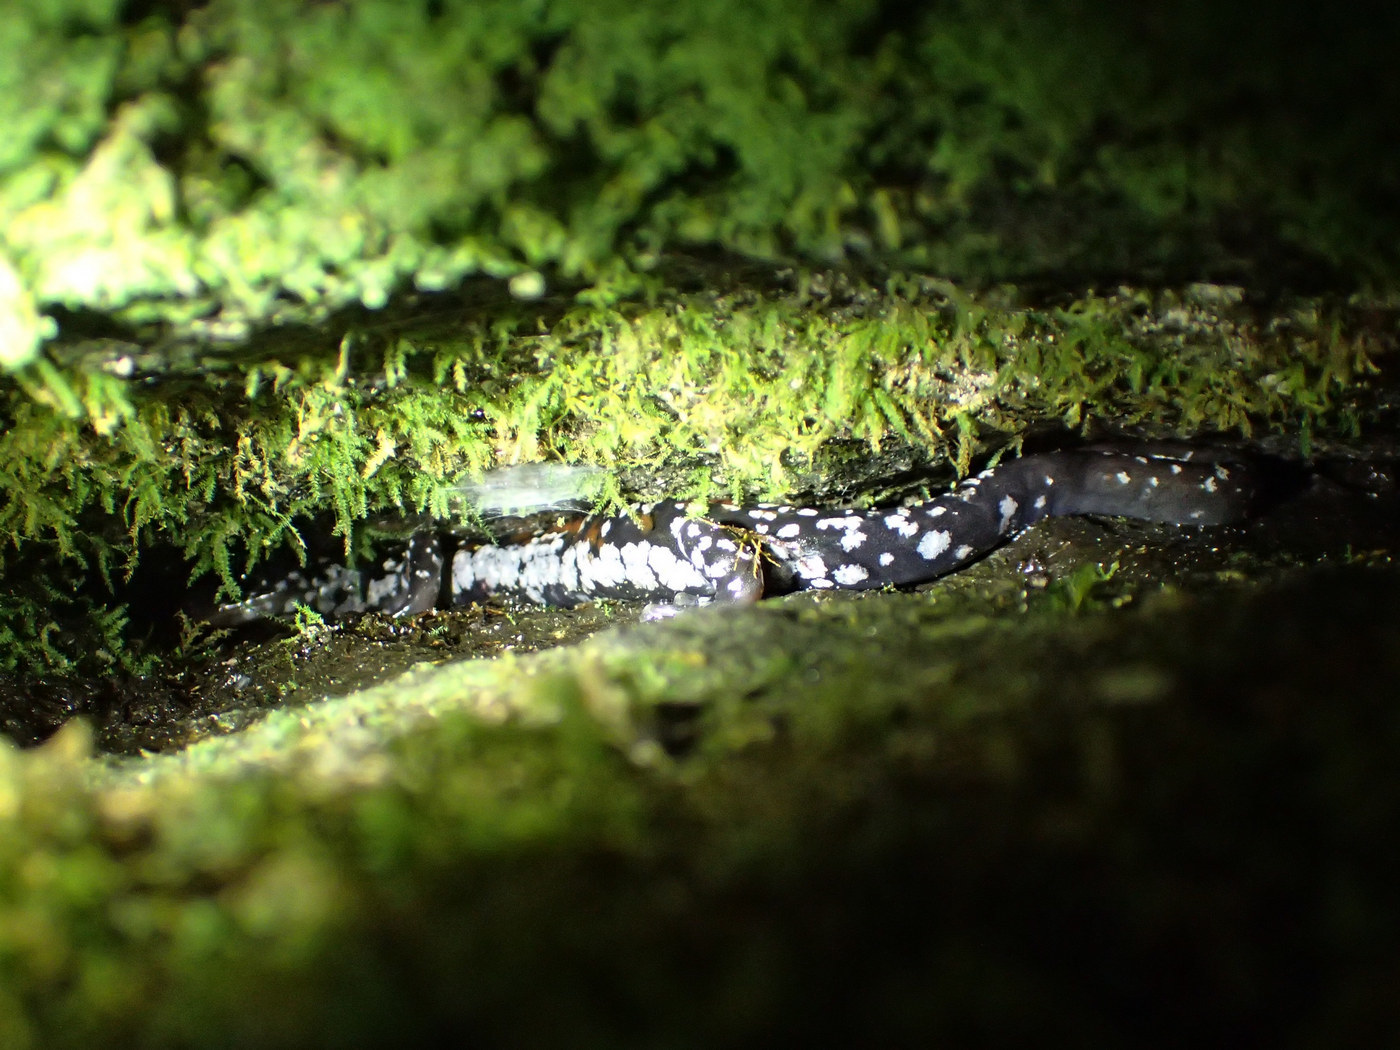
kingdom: Animalia
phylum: Chordata
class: Amphibia
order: Caudata
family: Plethodontidae
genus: Plethodon
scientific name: Plethodon yonahlossee
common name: Yonahlossee salamander
